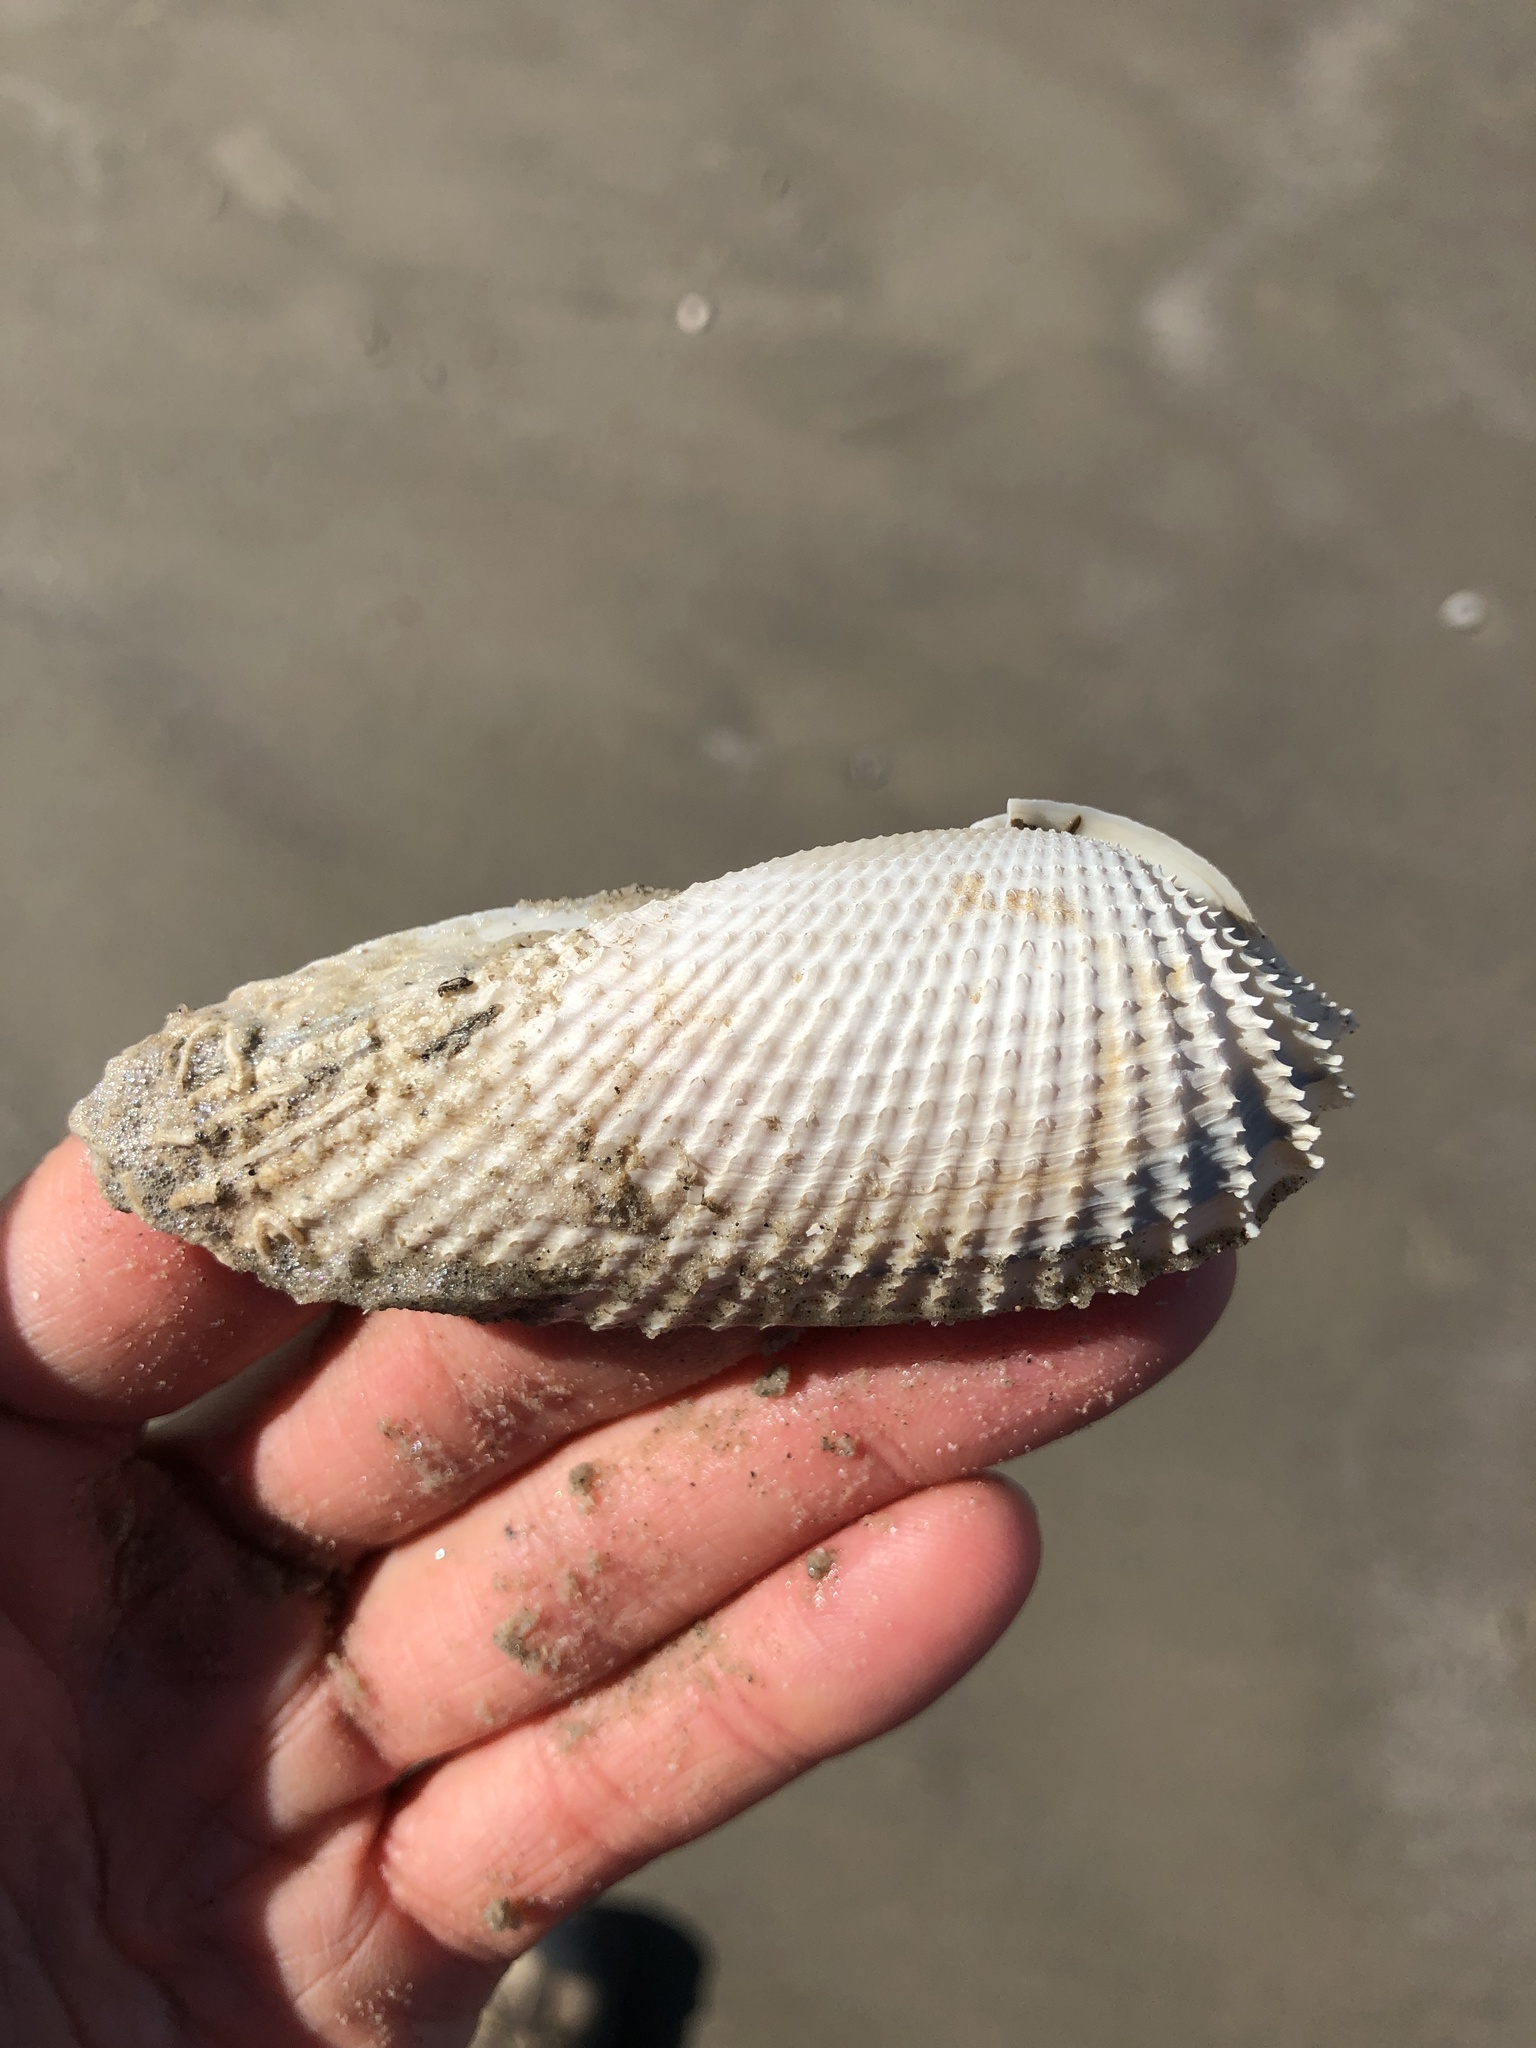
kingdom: Animalia
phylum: Mollusca
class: Bivalvia
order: Myida
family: Pholadidae
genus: Cyrtopleura
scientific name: Cyrtopleura costata
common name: Angel wing
